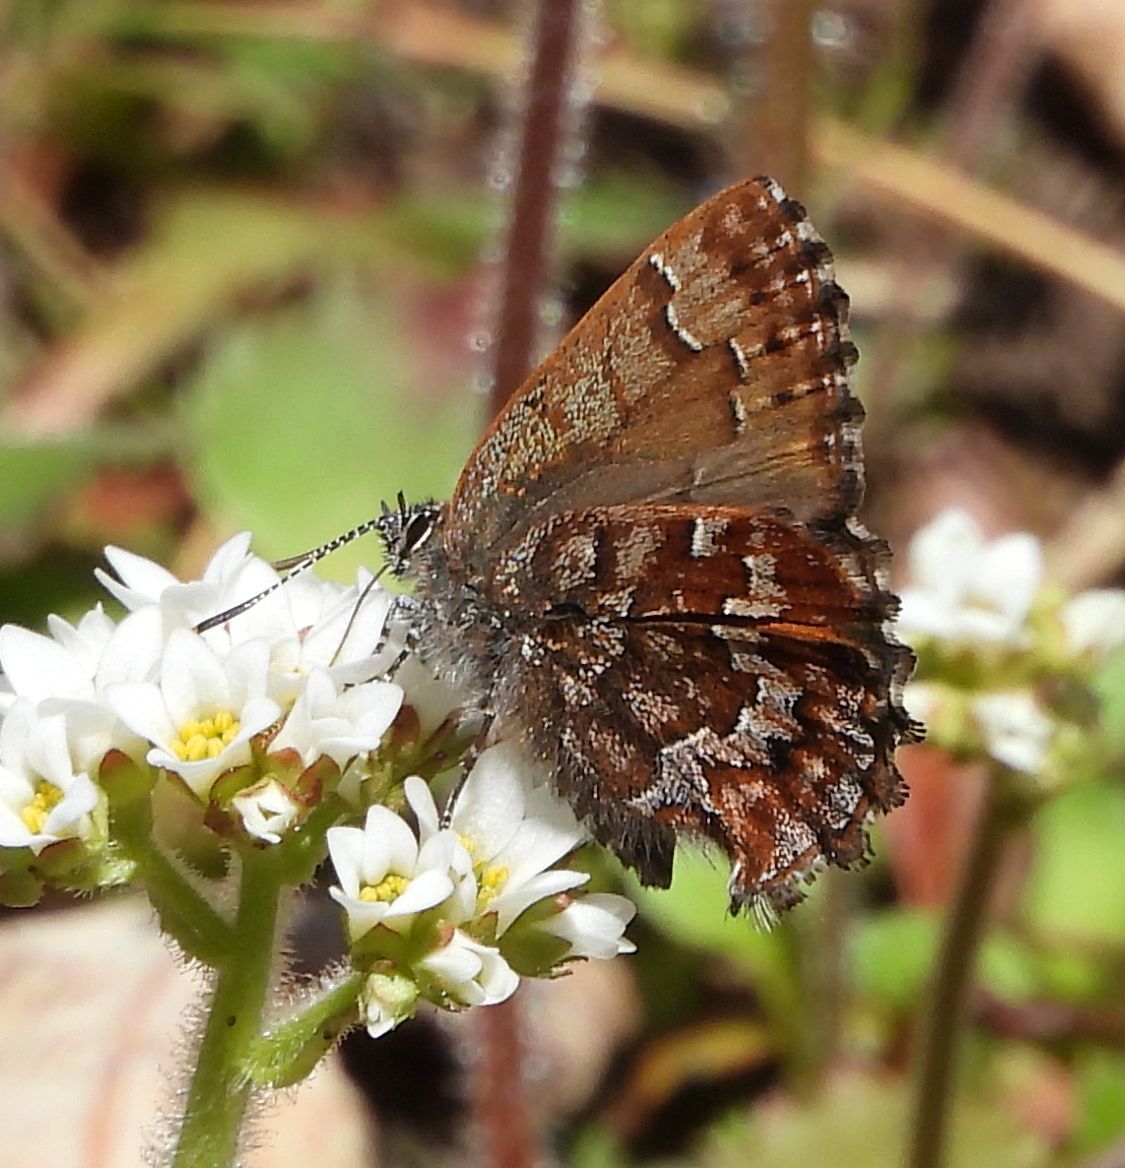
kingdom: Animalia
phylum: Arthropoda
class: Insecta
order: Lepidoptera
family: Lycaenidae
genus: Incisalia
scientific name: Incisalia niphon
